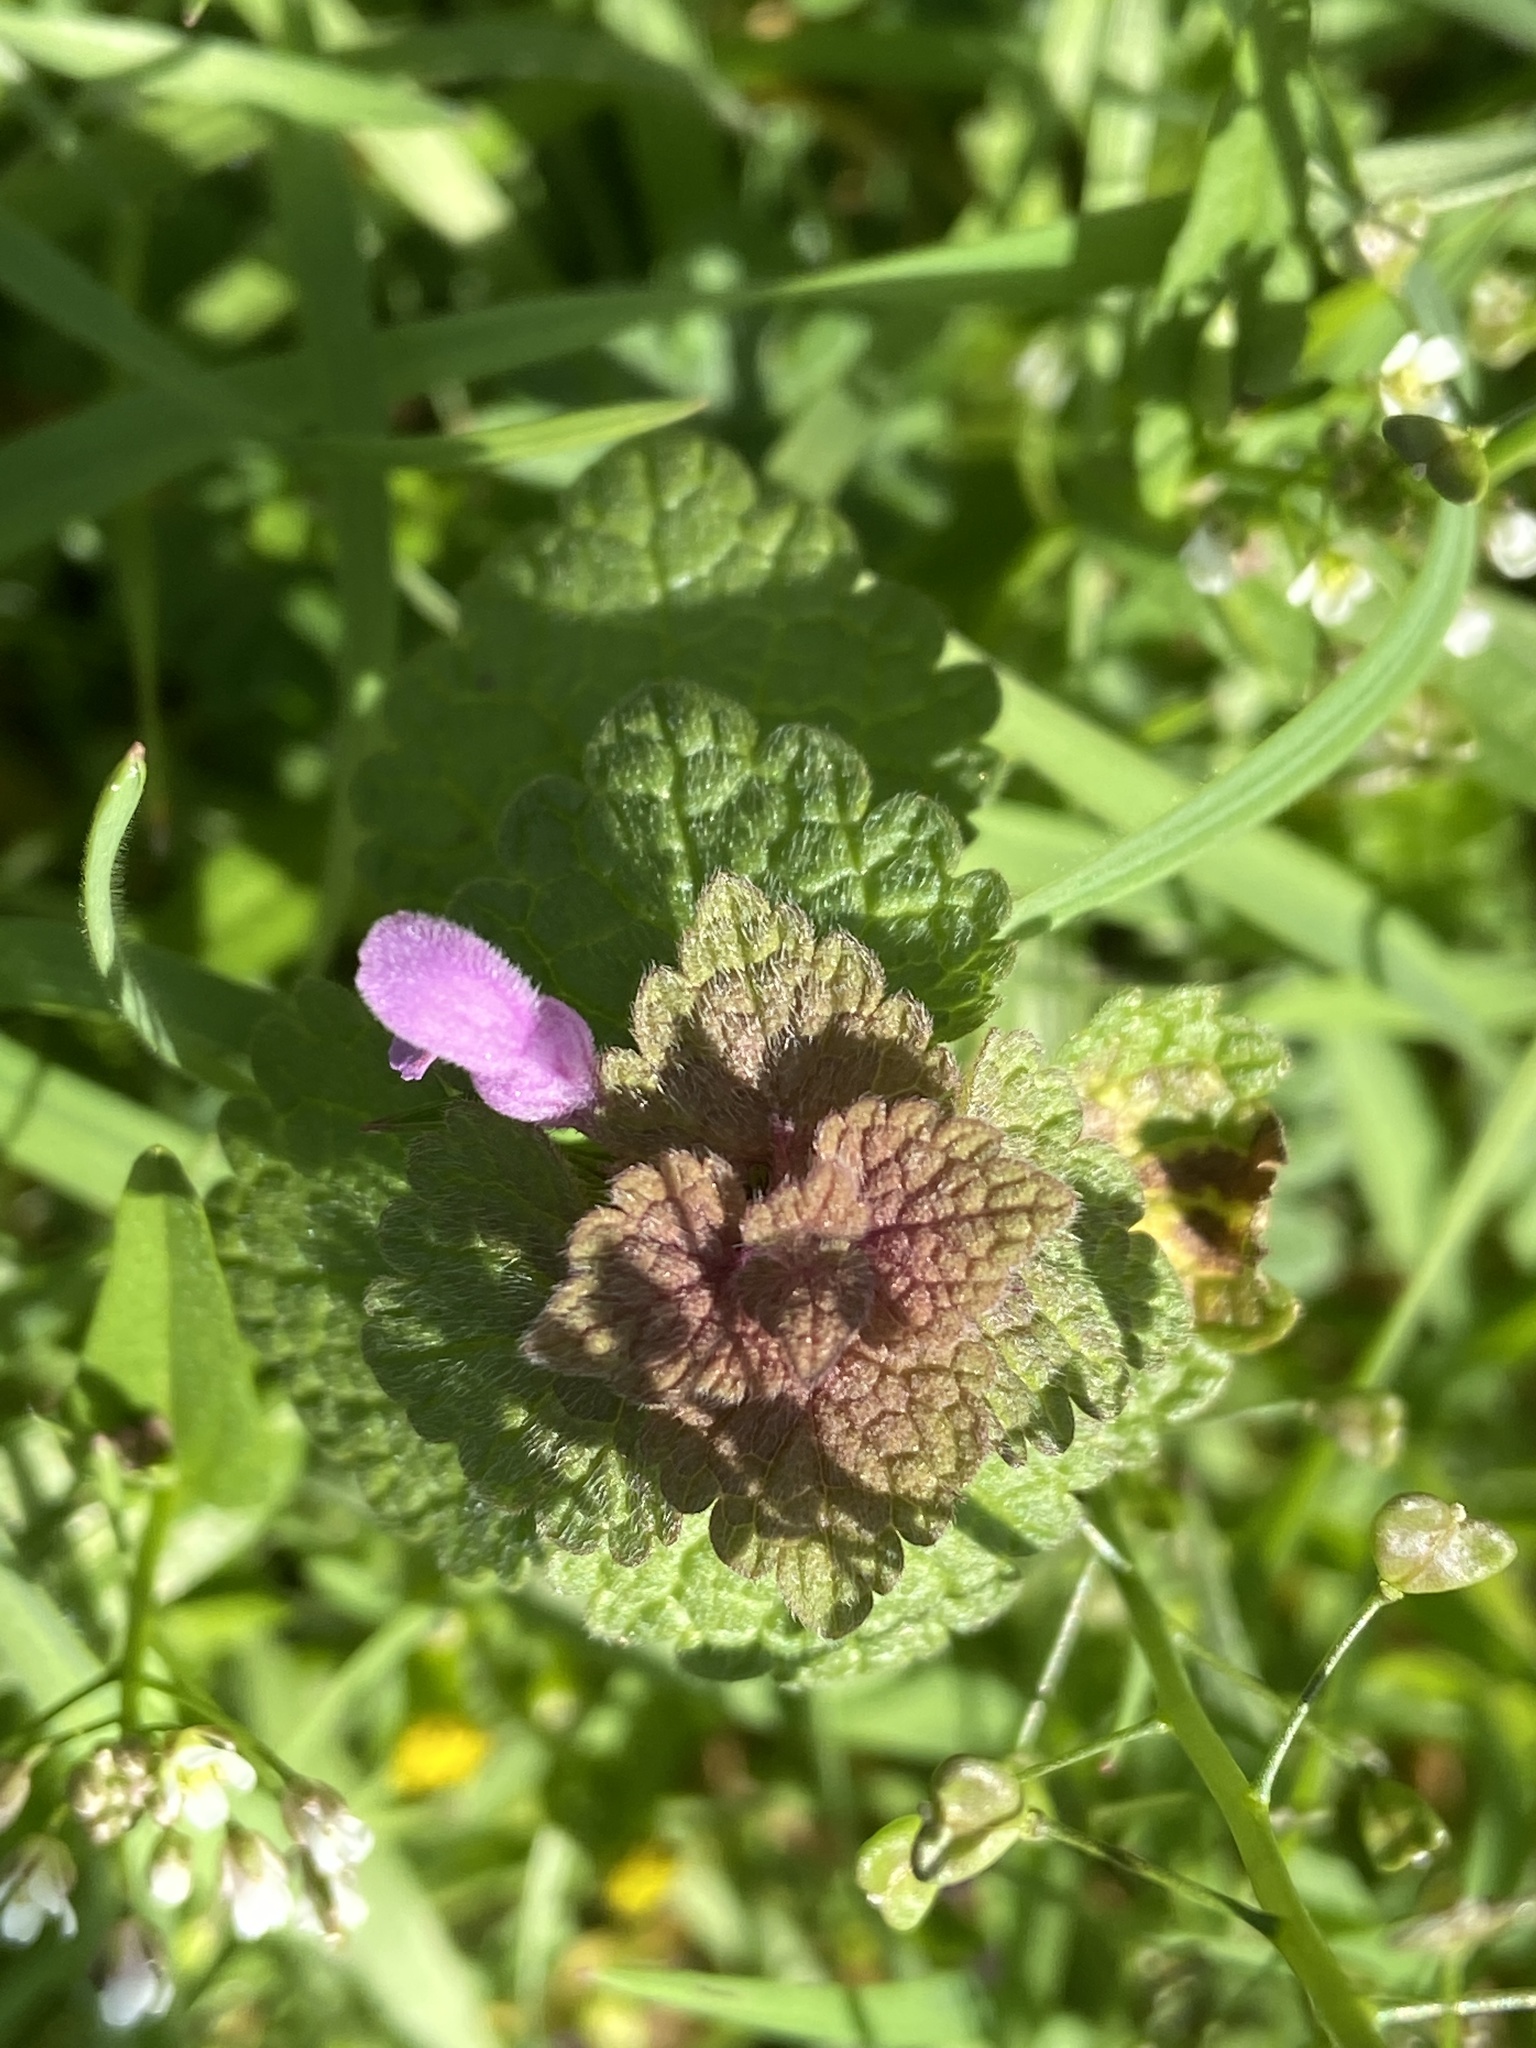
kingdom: Plantae
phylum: Tracheophyta
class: Magnoliopsida
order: Lamiales
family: Lamiaceae
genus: Lamium
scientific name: Lamium purpureum
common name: Red dead-nettle
